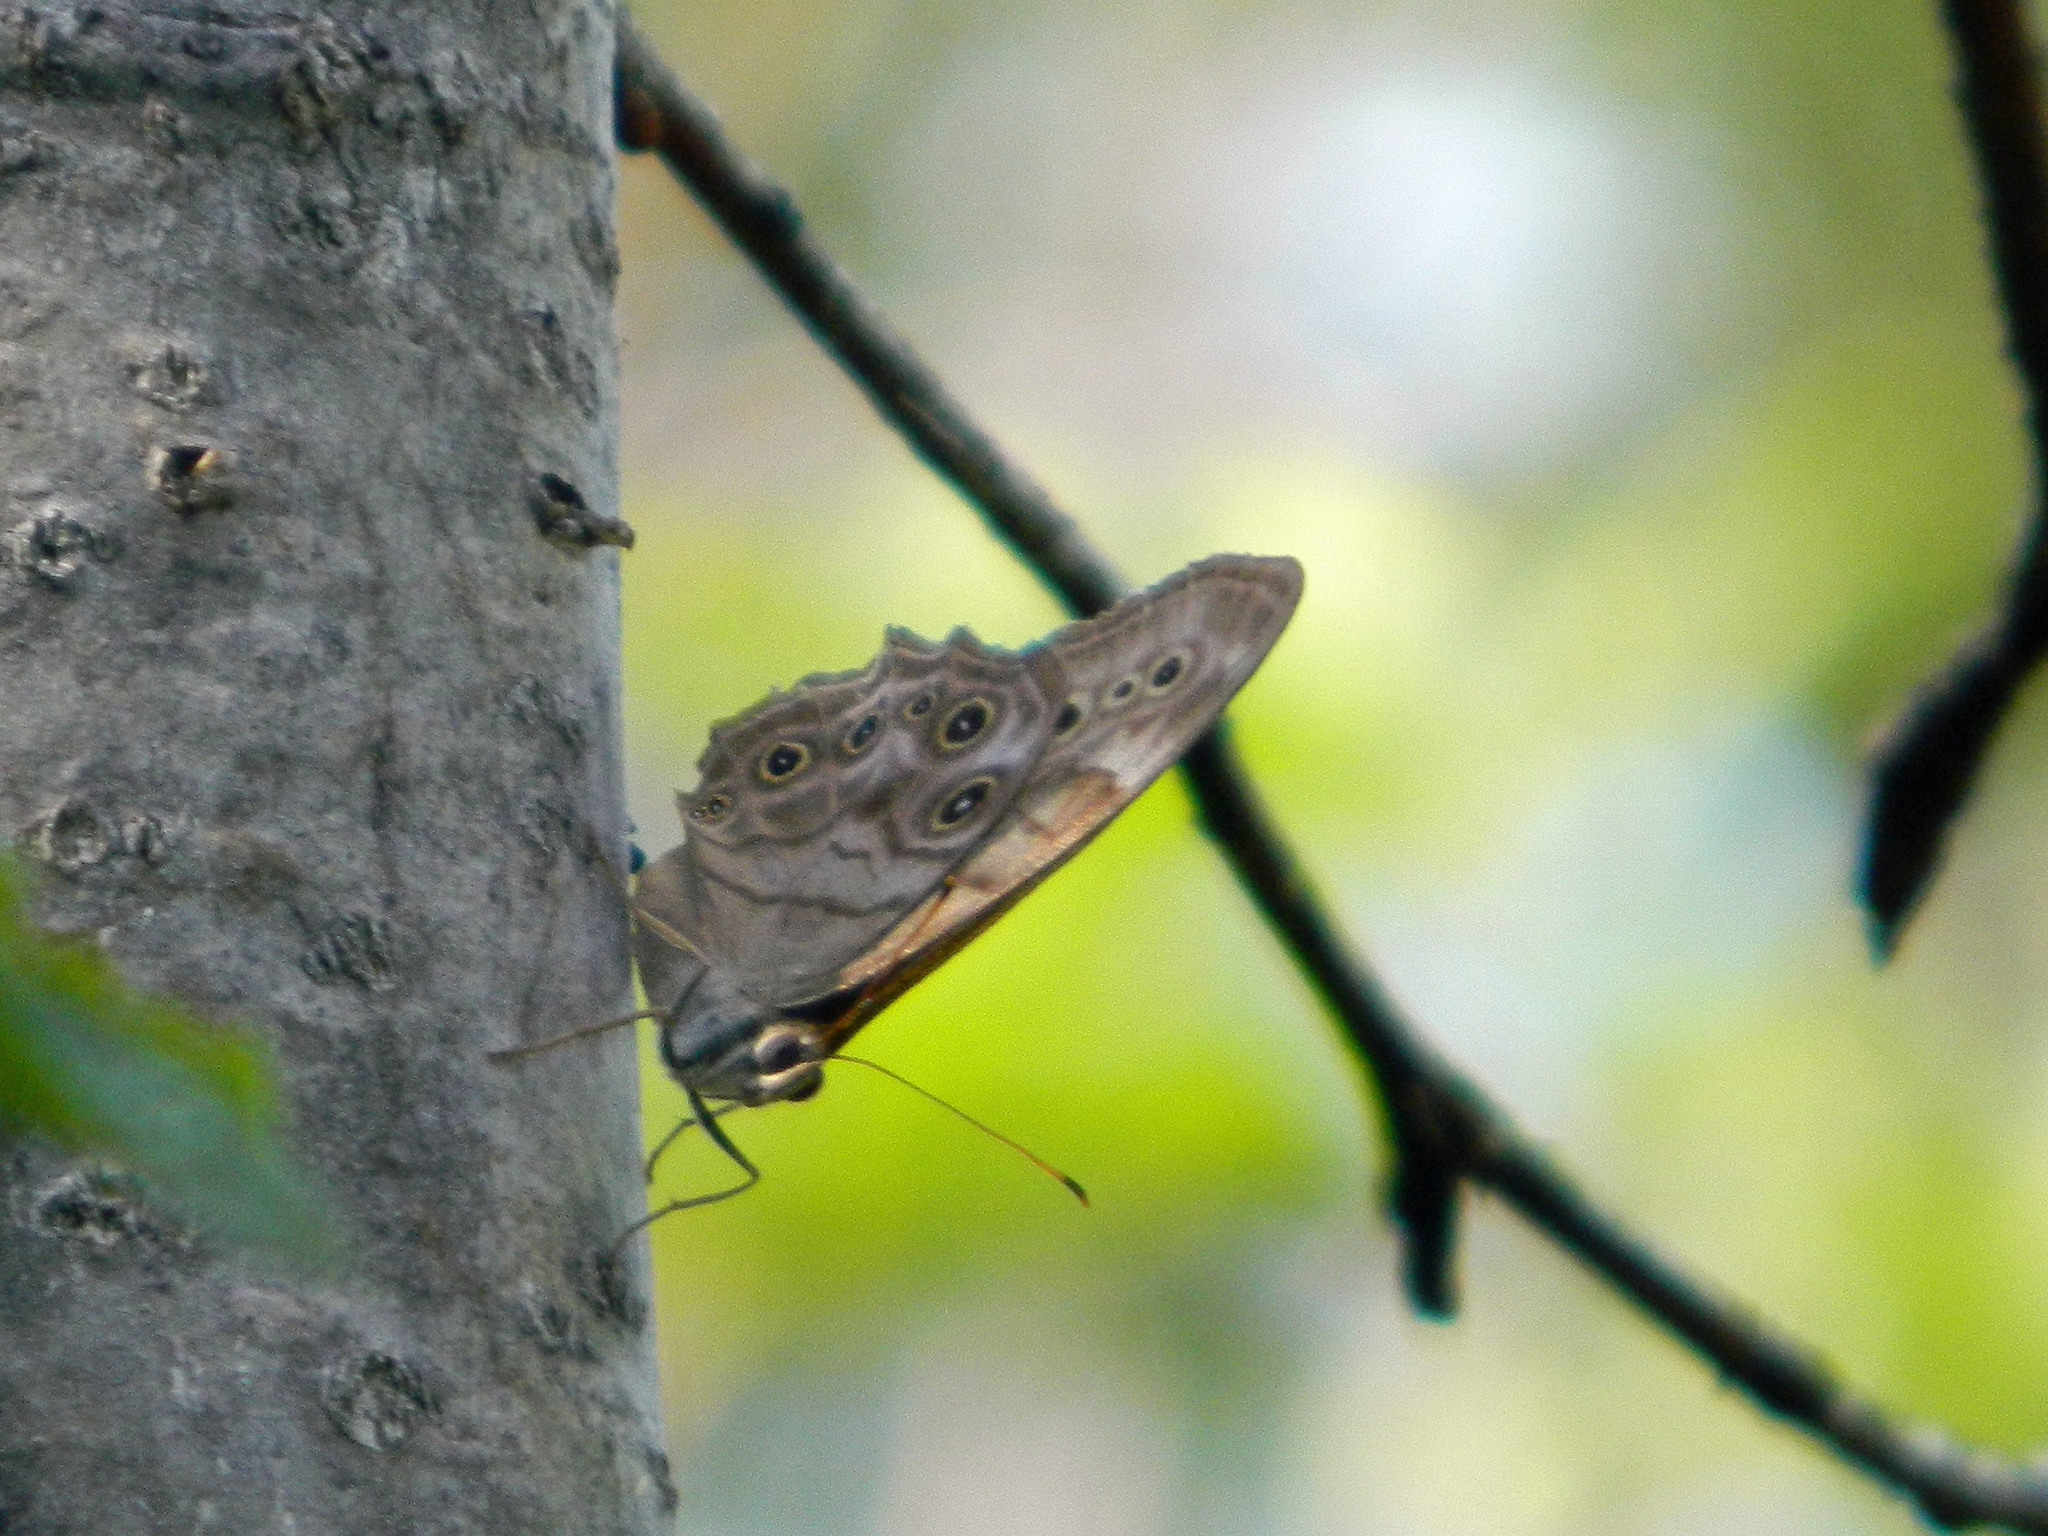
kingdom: Animalia
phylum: Arthropoda
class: Insecta
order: Lepidoptera
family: Nymphalidae
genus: Lethe
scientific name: Lethe anthedon
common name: Northern pearly-eye
